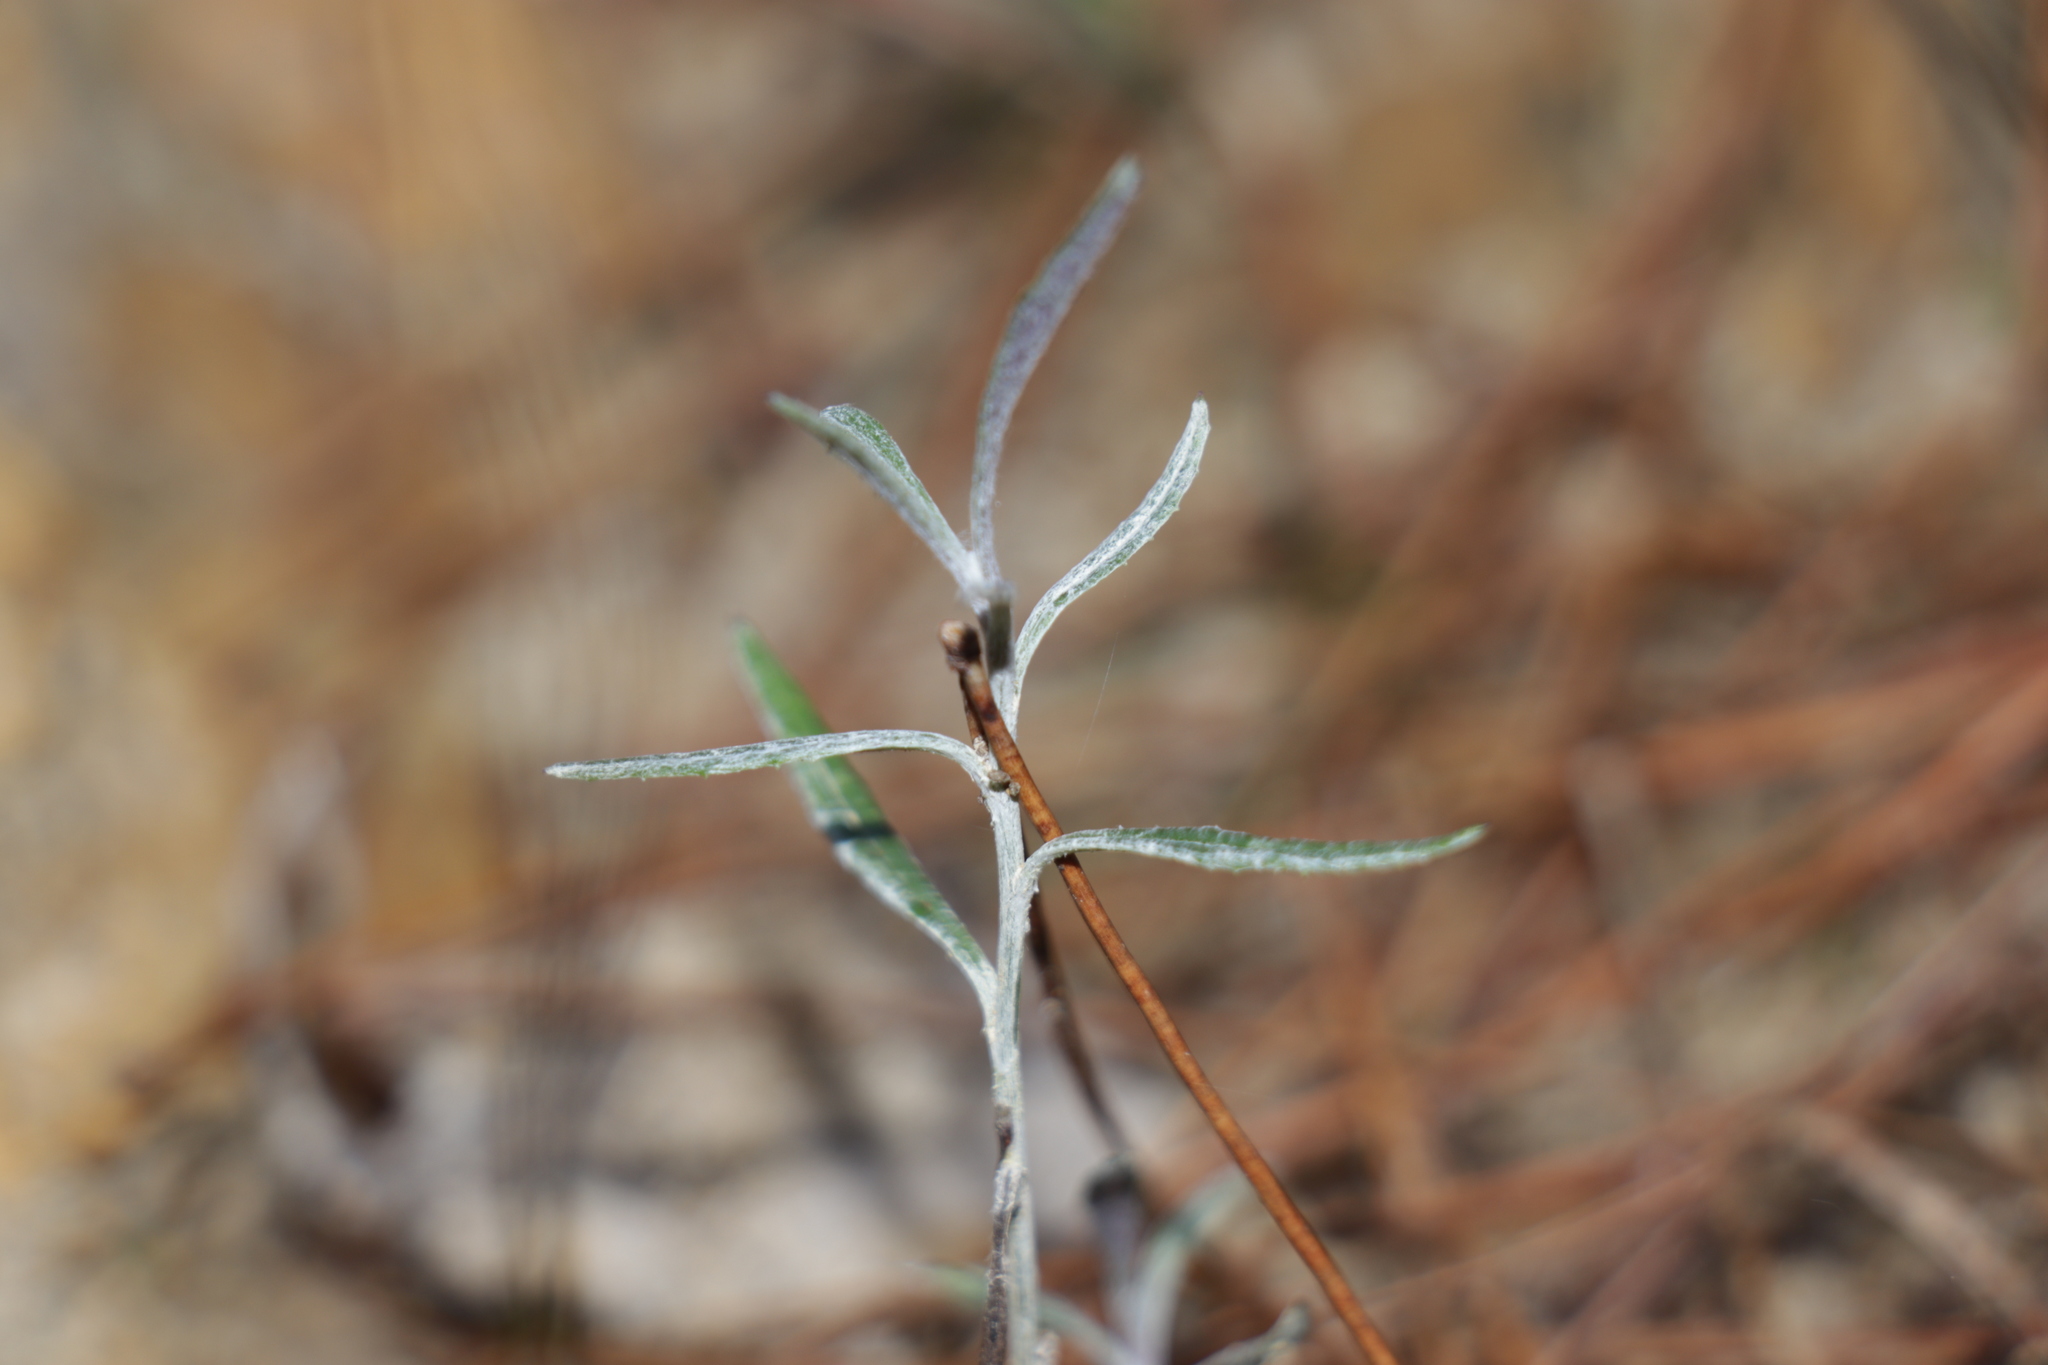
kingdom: Plantae
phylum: Tracheophyta
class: Magnoliopsida
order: Asterales
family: Asteraceae
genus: Senecio
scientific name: Senecio quadridentatus
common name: Cotton fireweed
